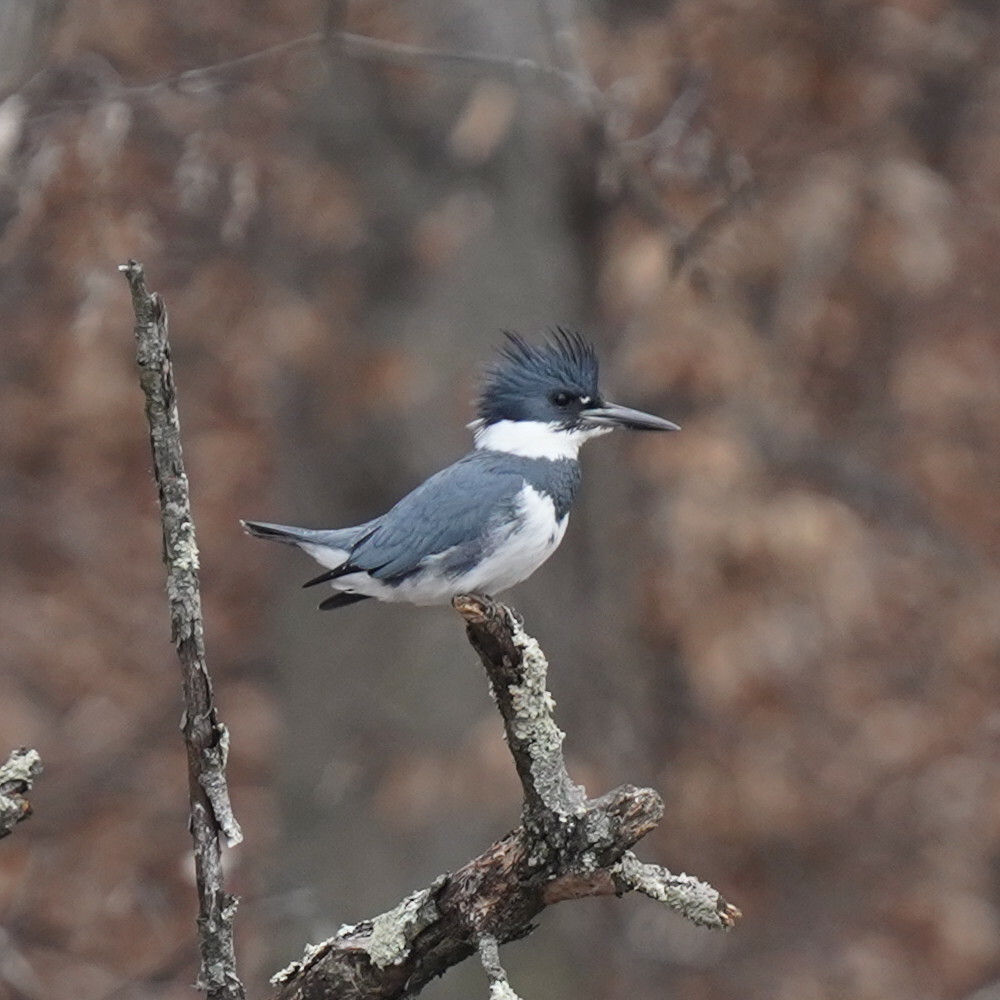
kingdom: Animalia
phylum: Chordata
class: Aves
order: Coraciiformes
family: Alcedinidae
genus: Megaceryle
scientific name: Megaceryle alcyon
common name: Belted kingfisher
